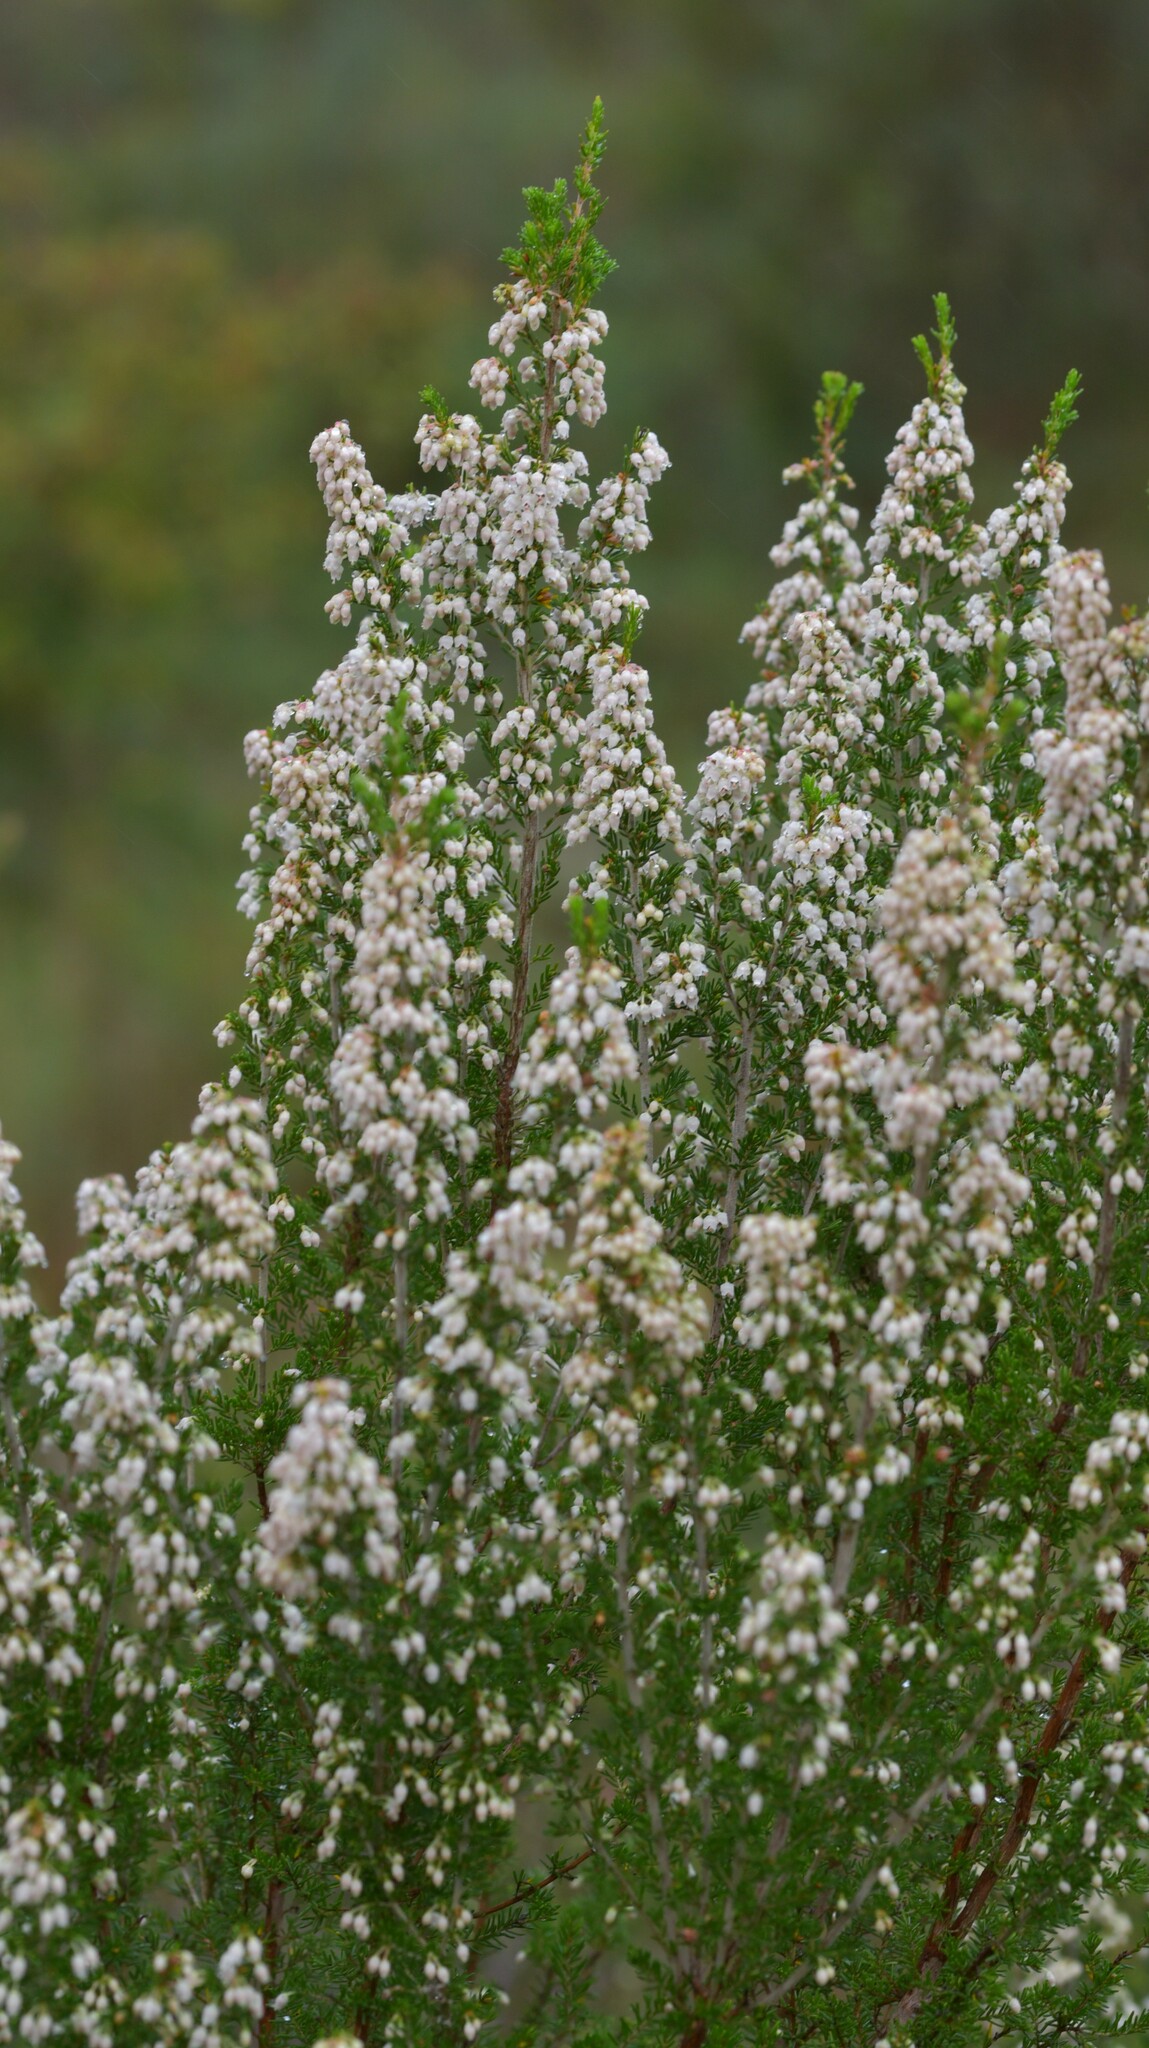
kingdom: Plantae
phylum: Tracheophyta
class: Magnoliopsida
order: Ericales
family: Ericaceae
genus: Erica
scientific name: Erica arborea
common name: Tree heath
